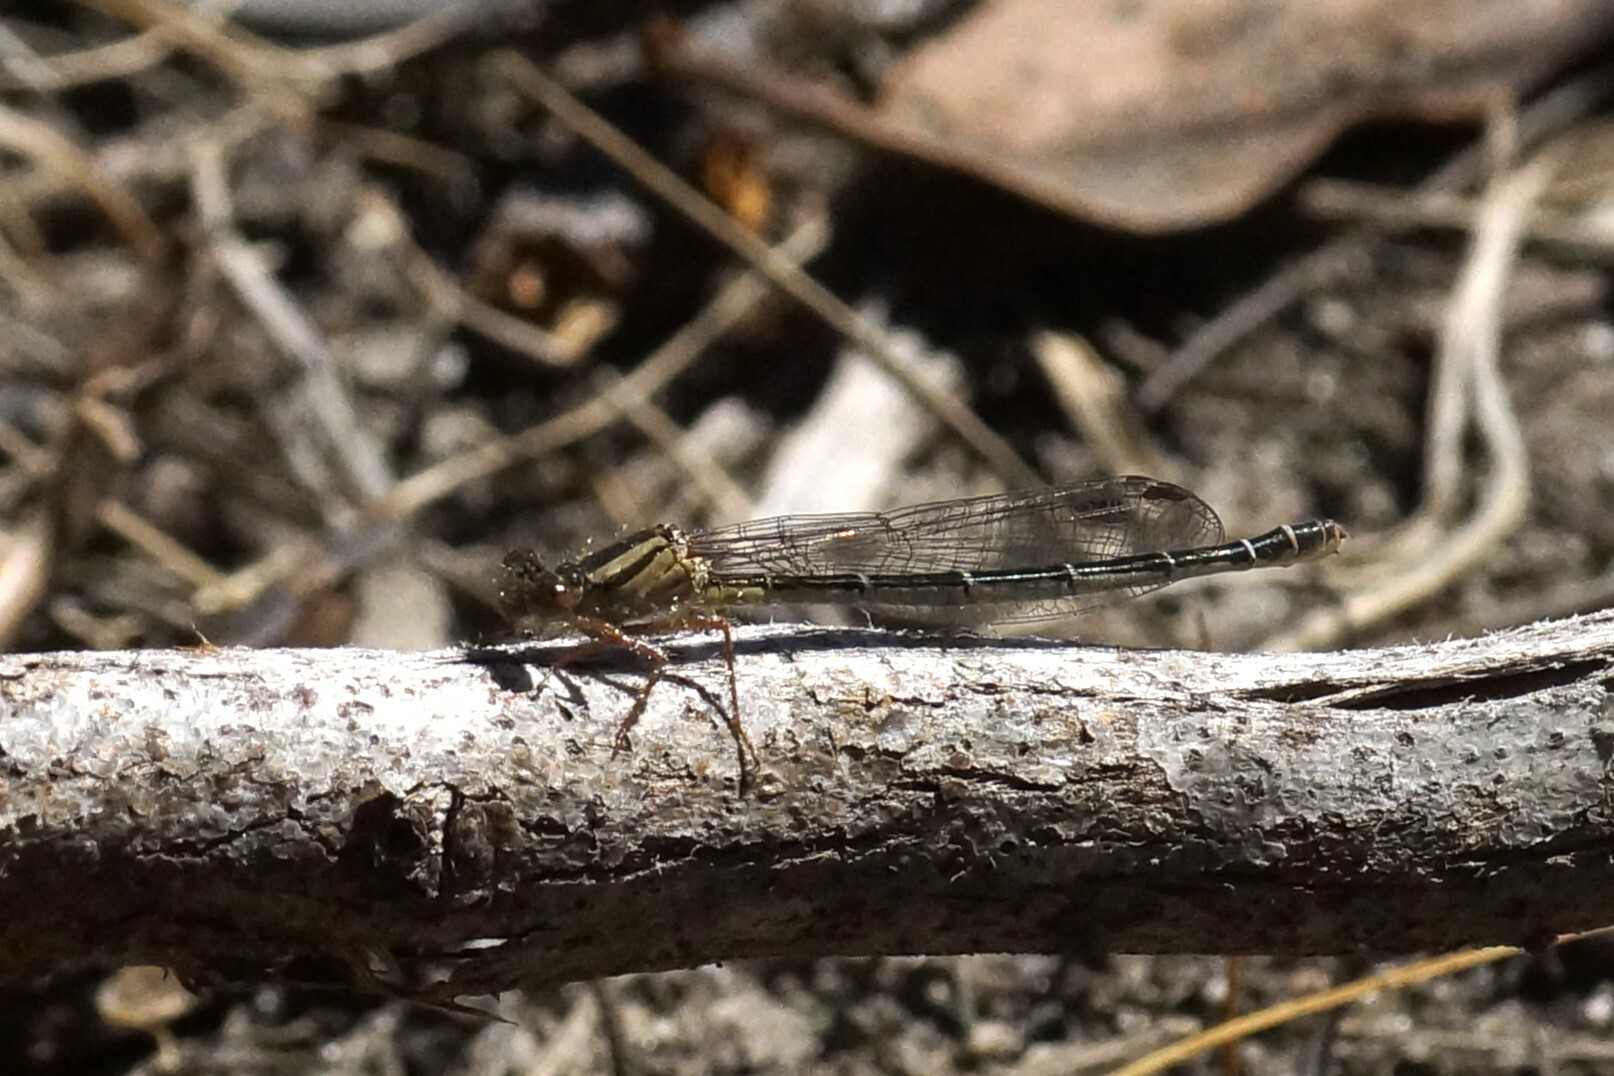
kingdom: Animalia
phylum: Arthropoda
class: Insecta
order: Odonata
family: Coenagrionidae
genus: Xanthagrion
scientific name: Xanthagrion erythroneurum
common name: Red and blue damsel
